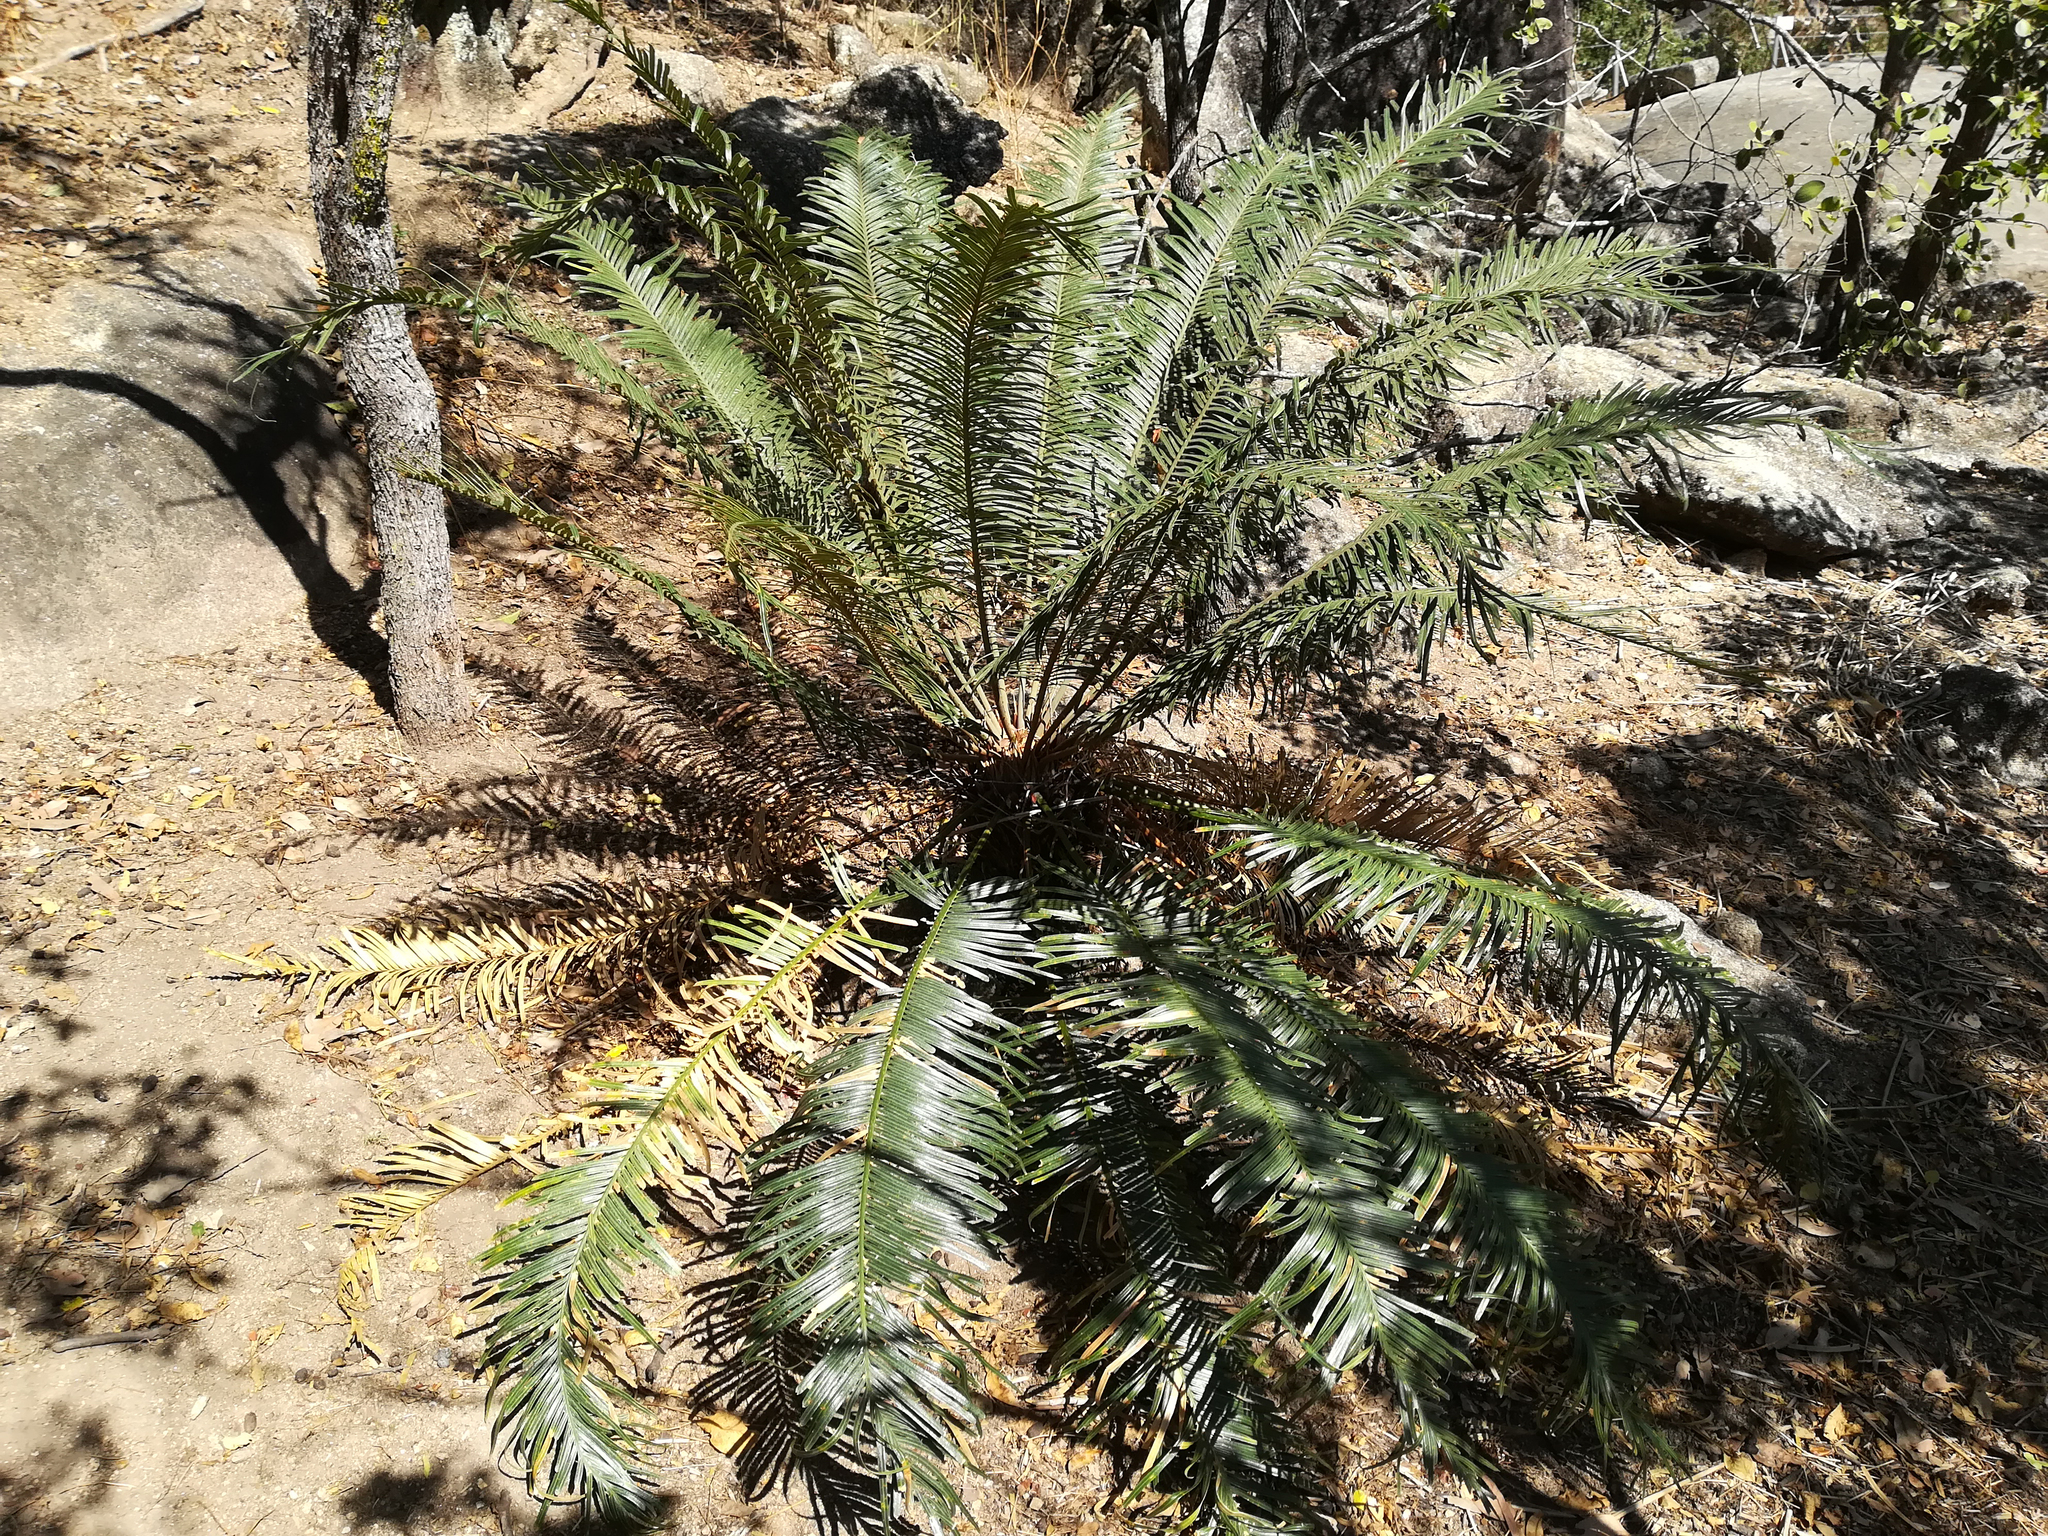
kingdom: Plantae
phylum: Tracheophyta
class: Cycadopsida
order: Cycadales
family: Cycadaceae
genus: Cycas
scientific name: Cycas media
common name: Queensland cycas
